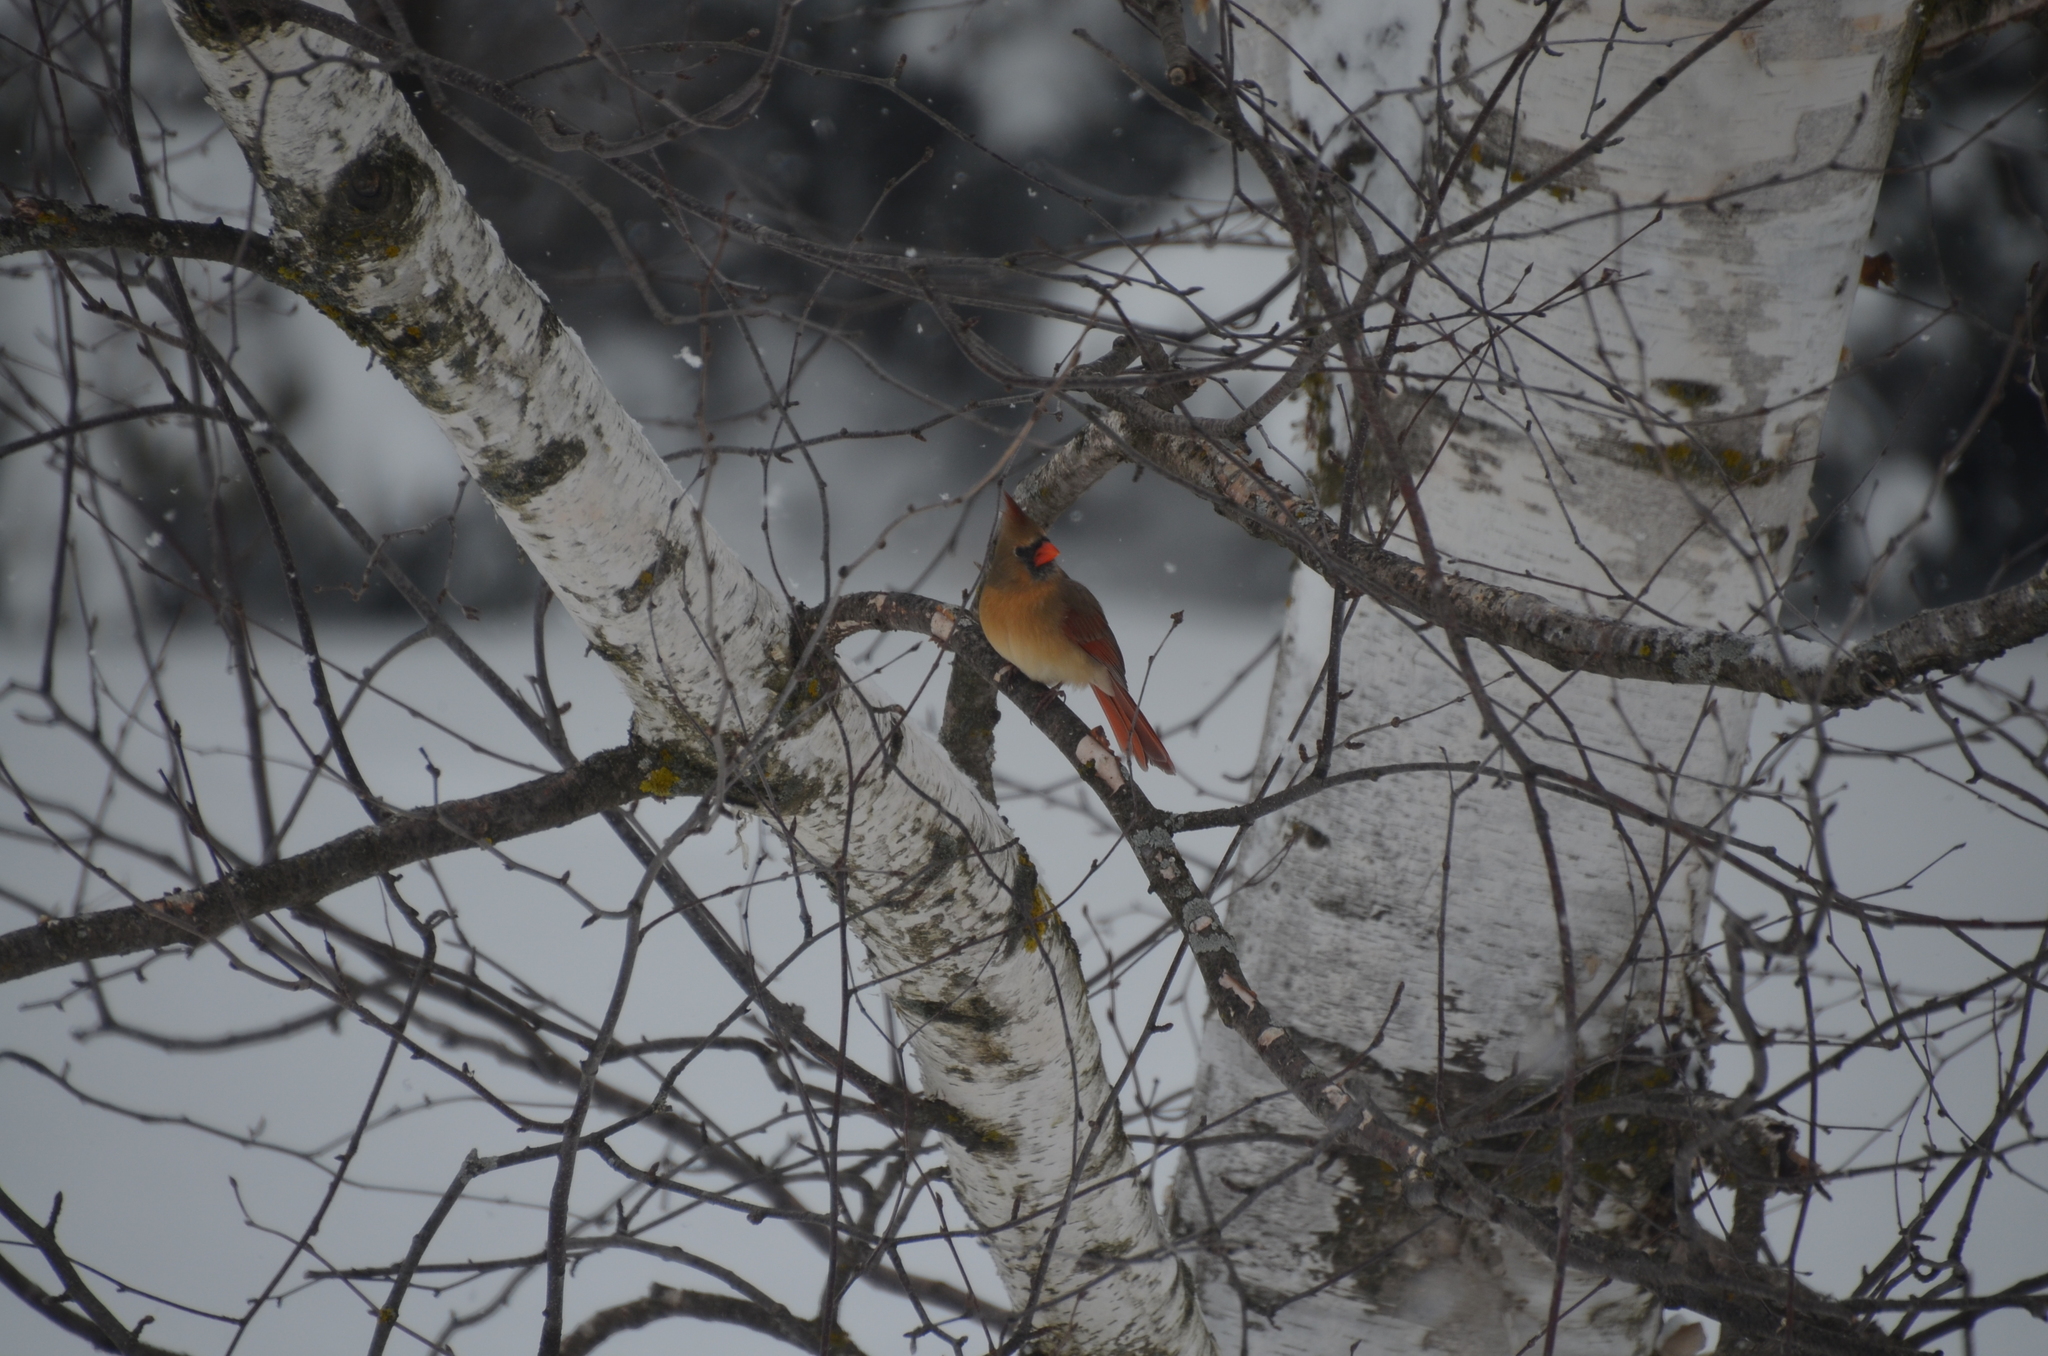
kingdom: Animalia
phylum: Chordata
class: Aves
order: Passeriformes
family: Cardinalidae
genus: Cardinalis
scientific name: Cardinalis cardinalis
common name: Northern cardinal
